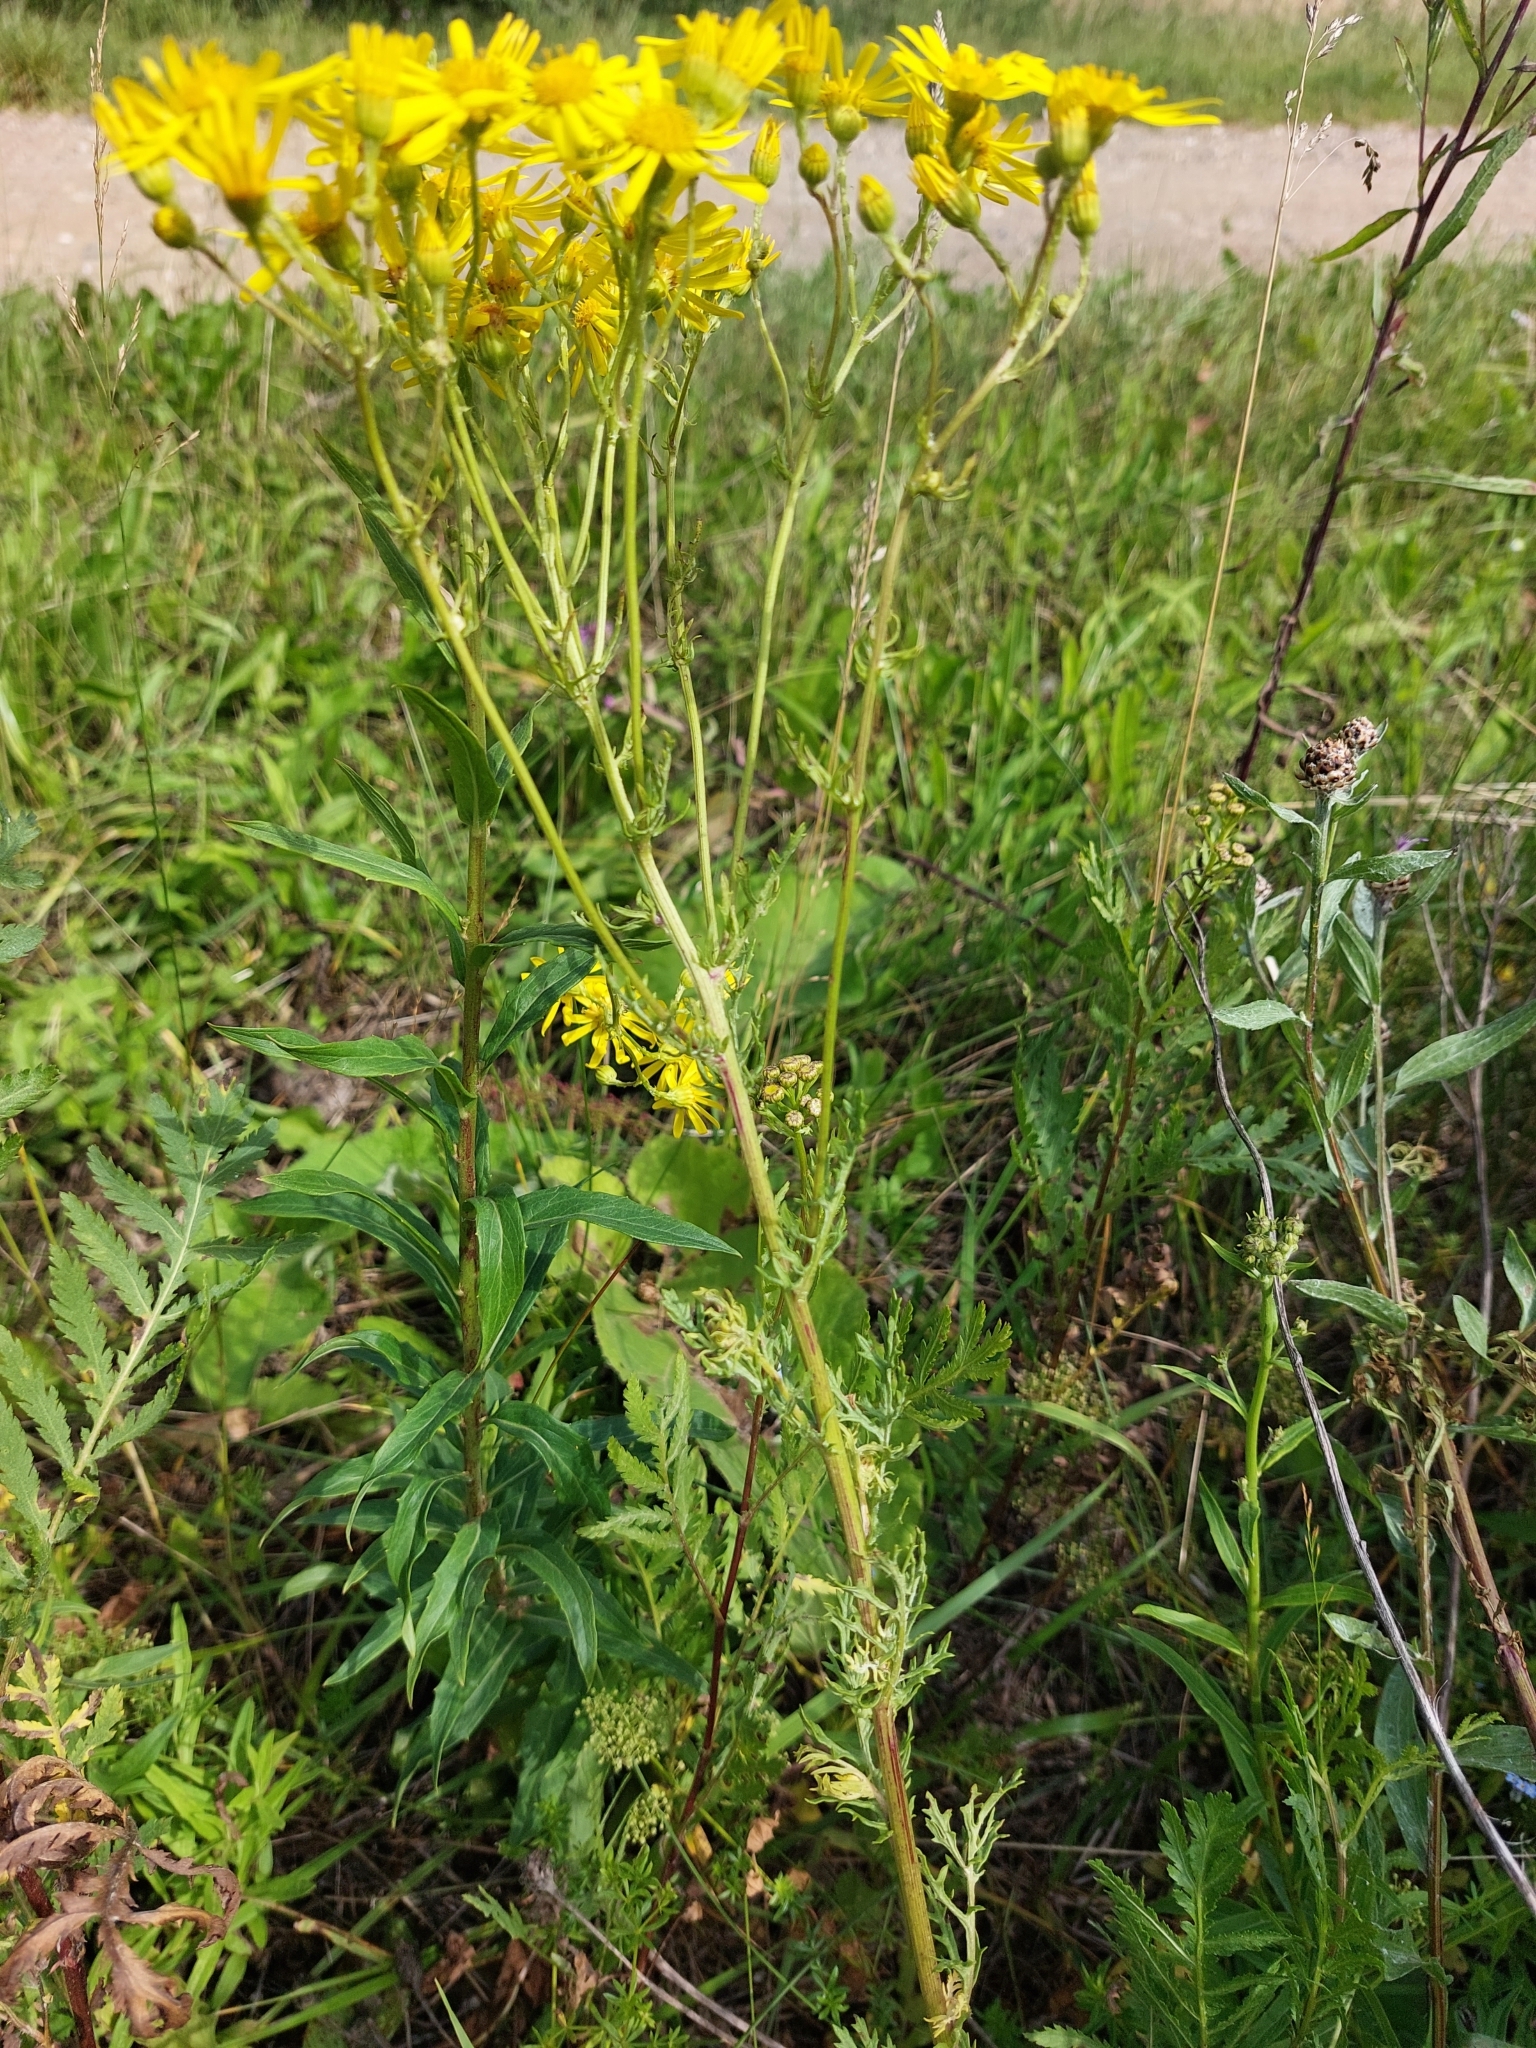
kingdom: Plantae
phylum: Tracheophyta
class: Magnoliopsida
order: Asterales
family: Asteraceae
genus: Jacobaea
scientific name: Jacobaea vulgaris
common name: Stinking willie
